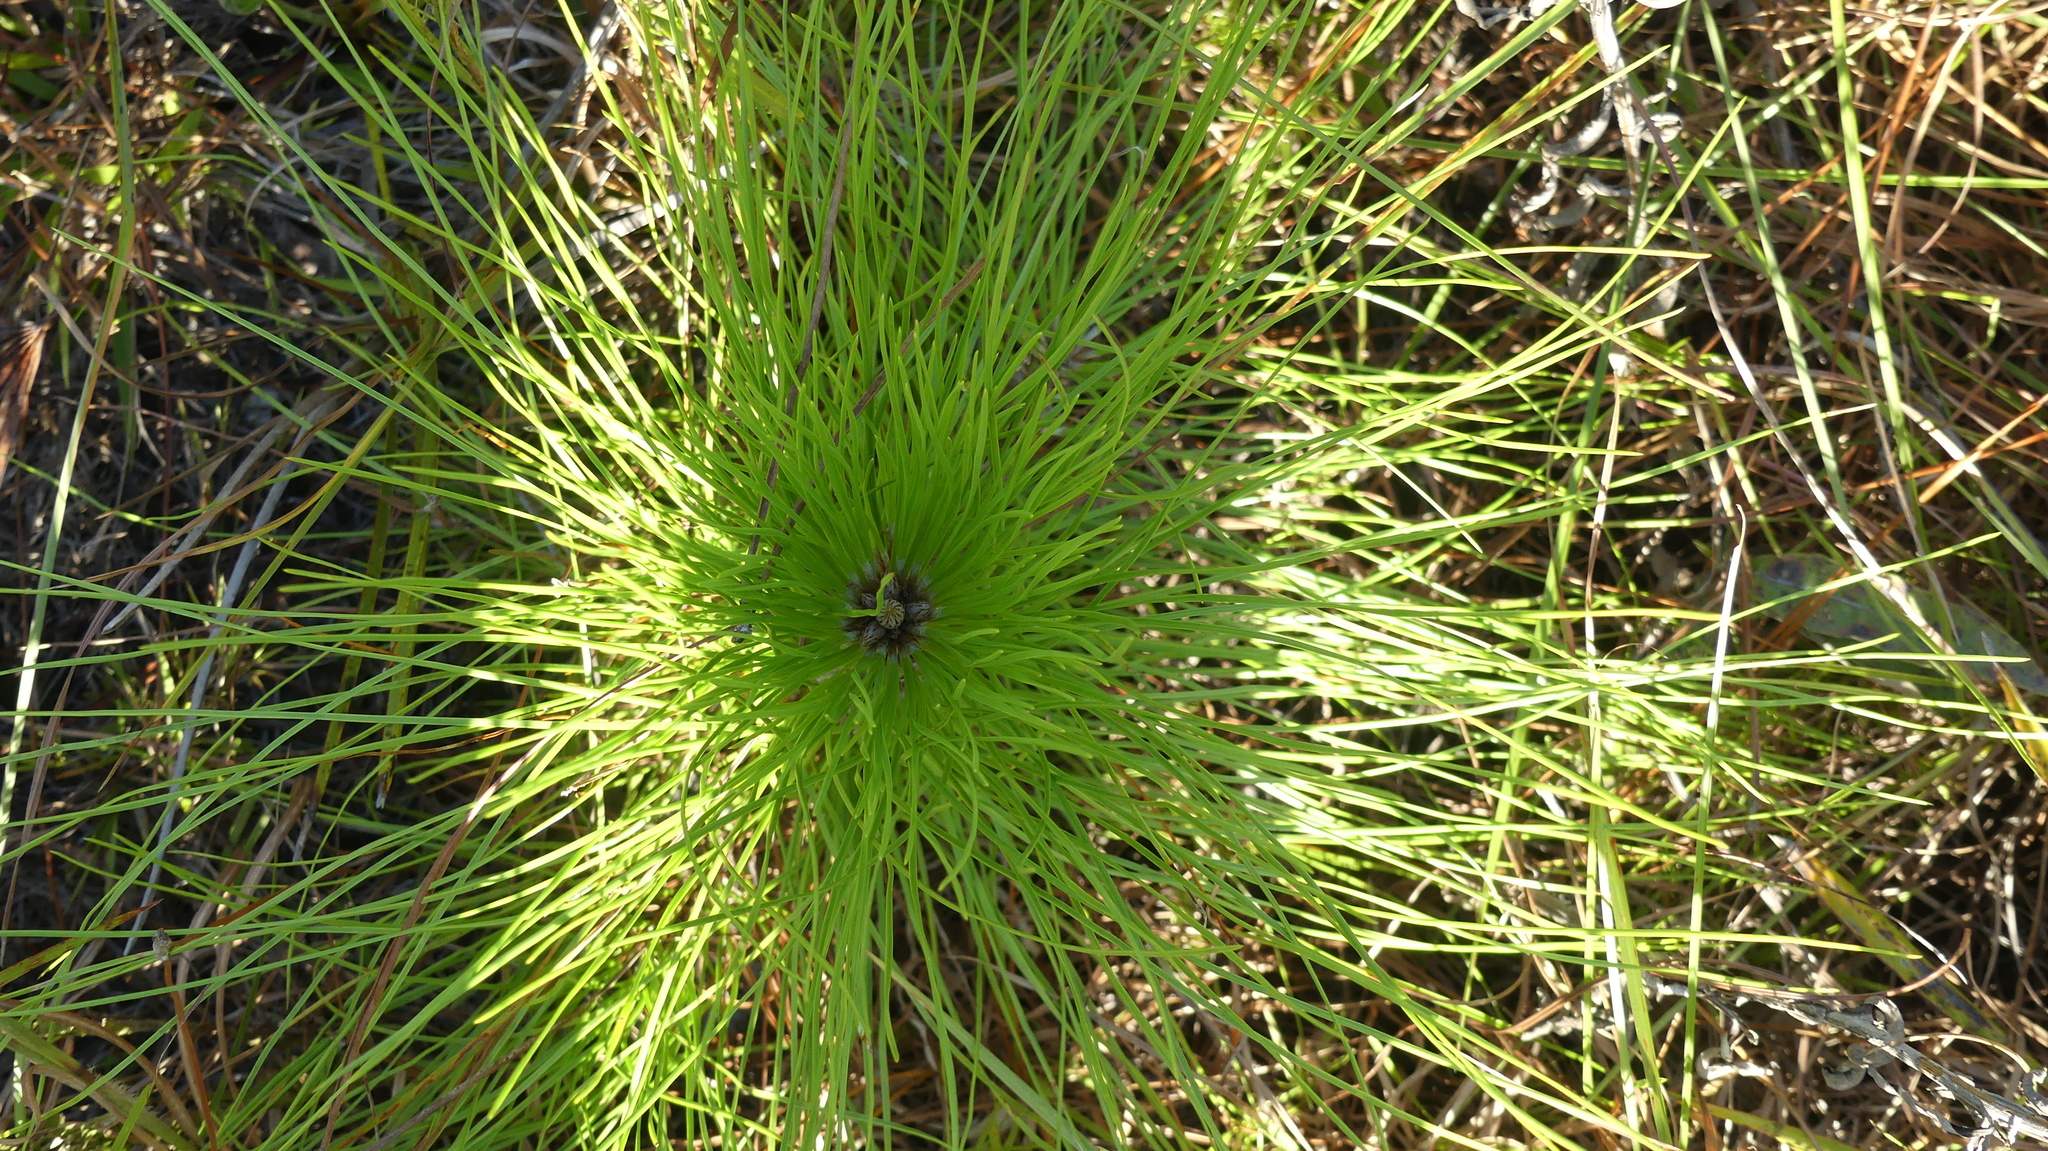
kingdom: Plantae
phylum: Tracheophyta
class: Pinopsida
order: Pinales
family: Pinaceae
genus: Pinus
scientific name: Pinus palustris
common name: Longleaf pine
